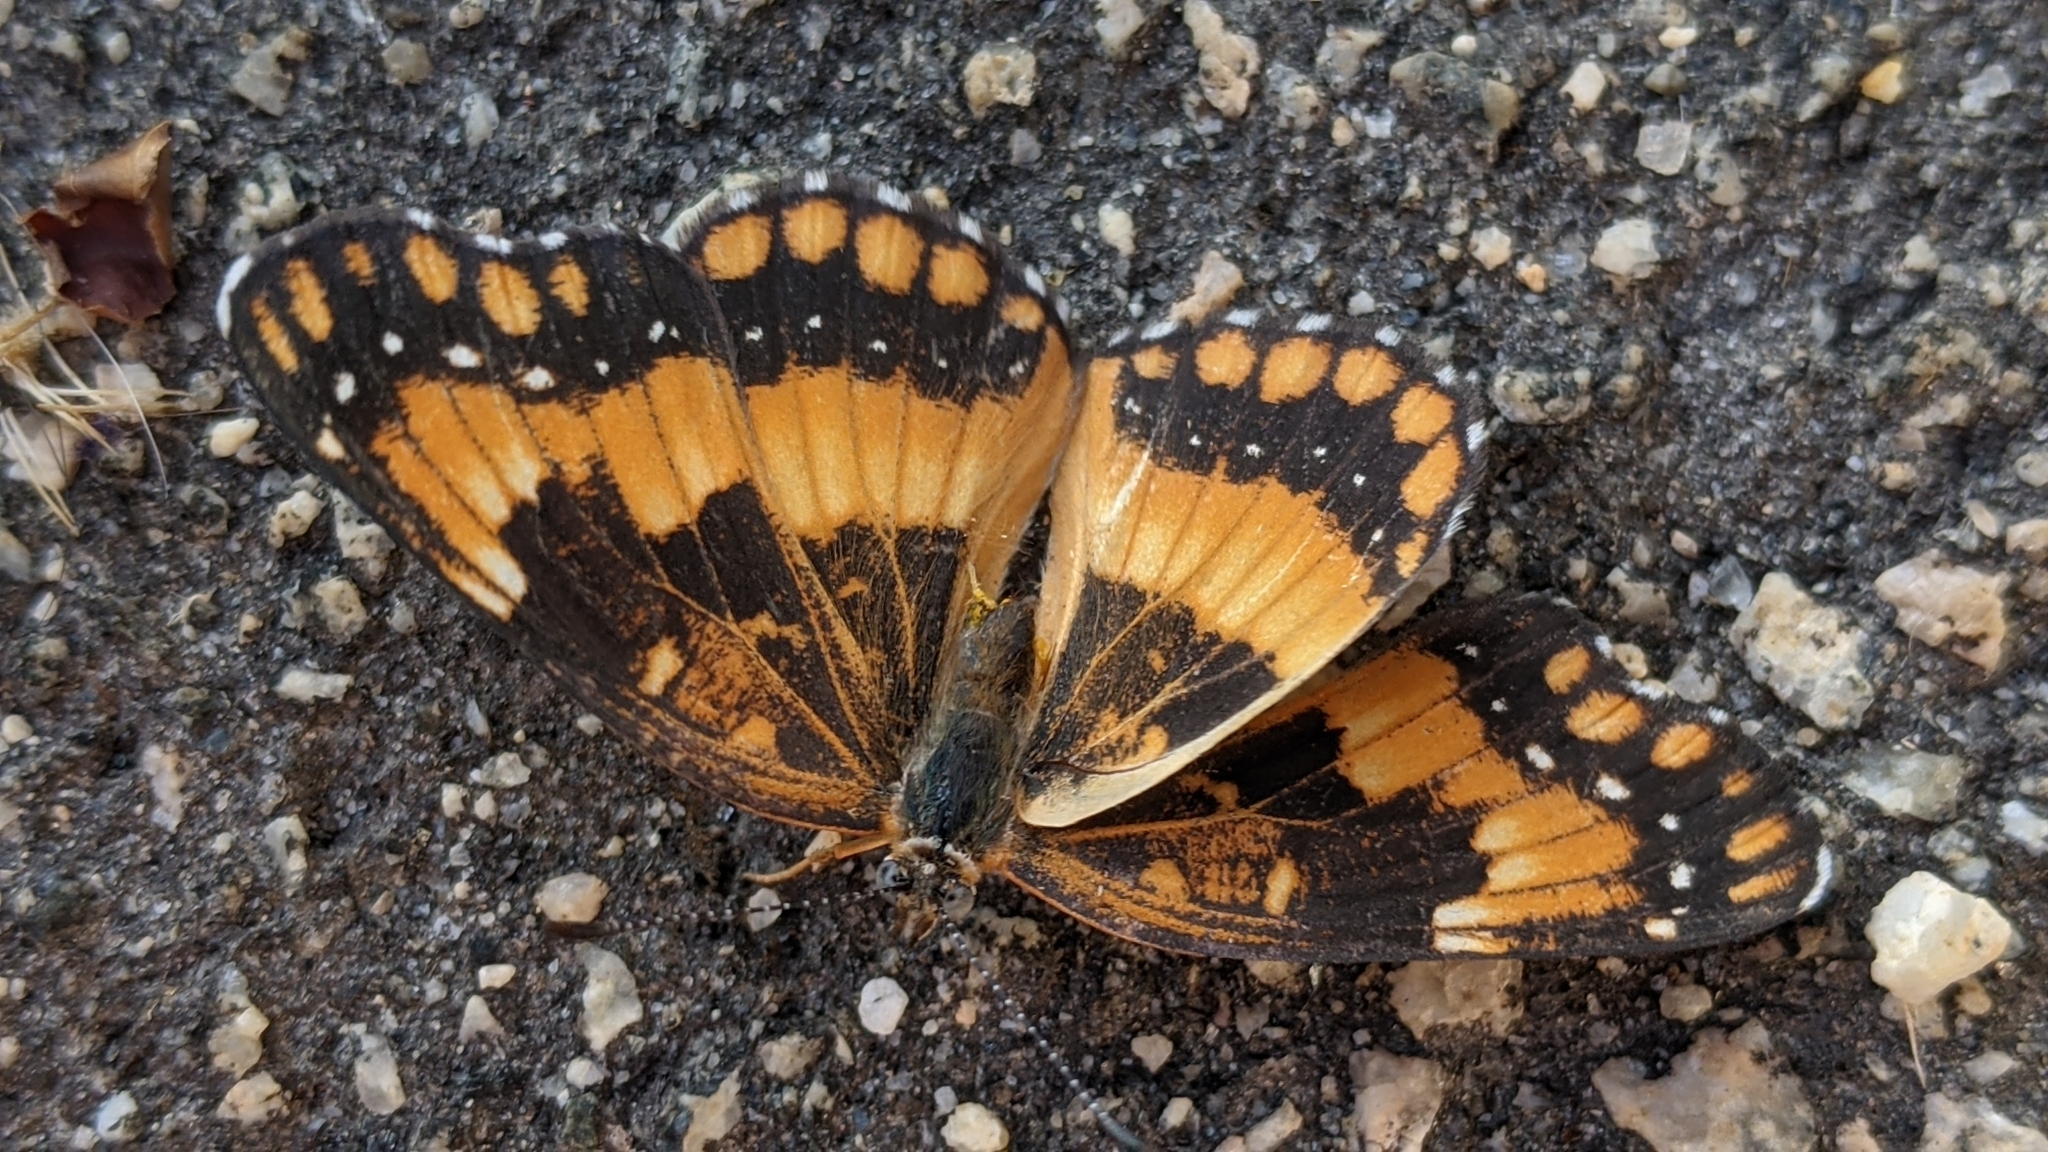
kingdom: Animalia
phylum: Arthropoda
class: Insecta
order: Lepidoptera
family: Nymphalidae
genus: Chlosyne
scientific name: Chlosyne californica
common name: California patch
